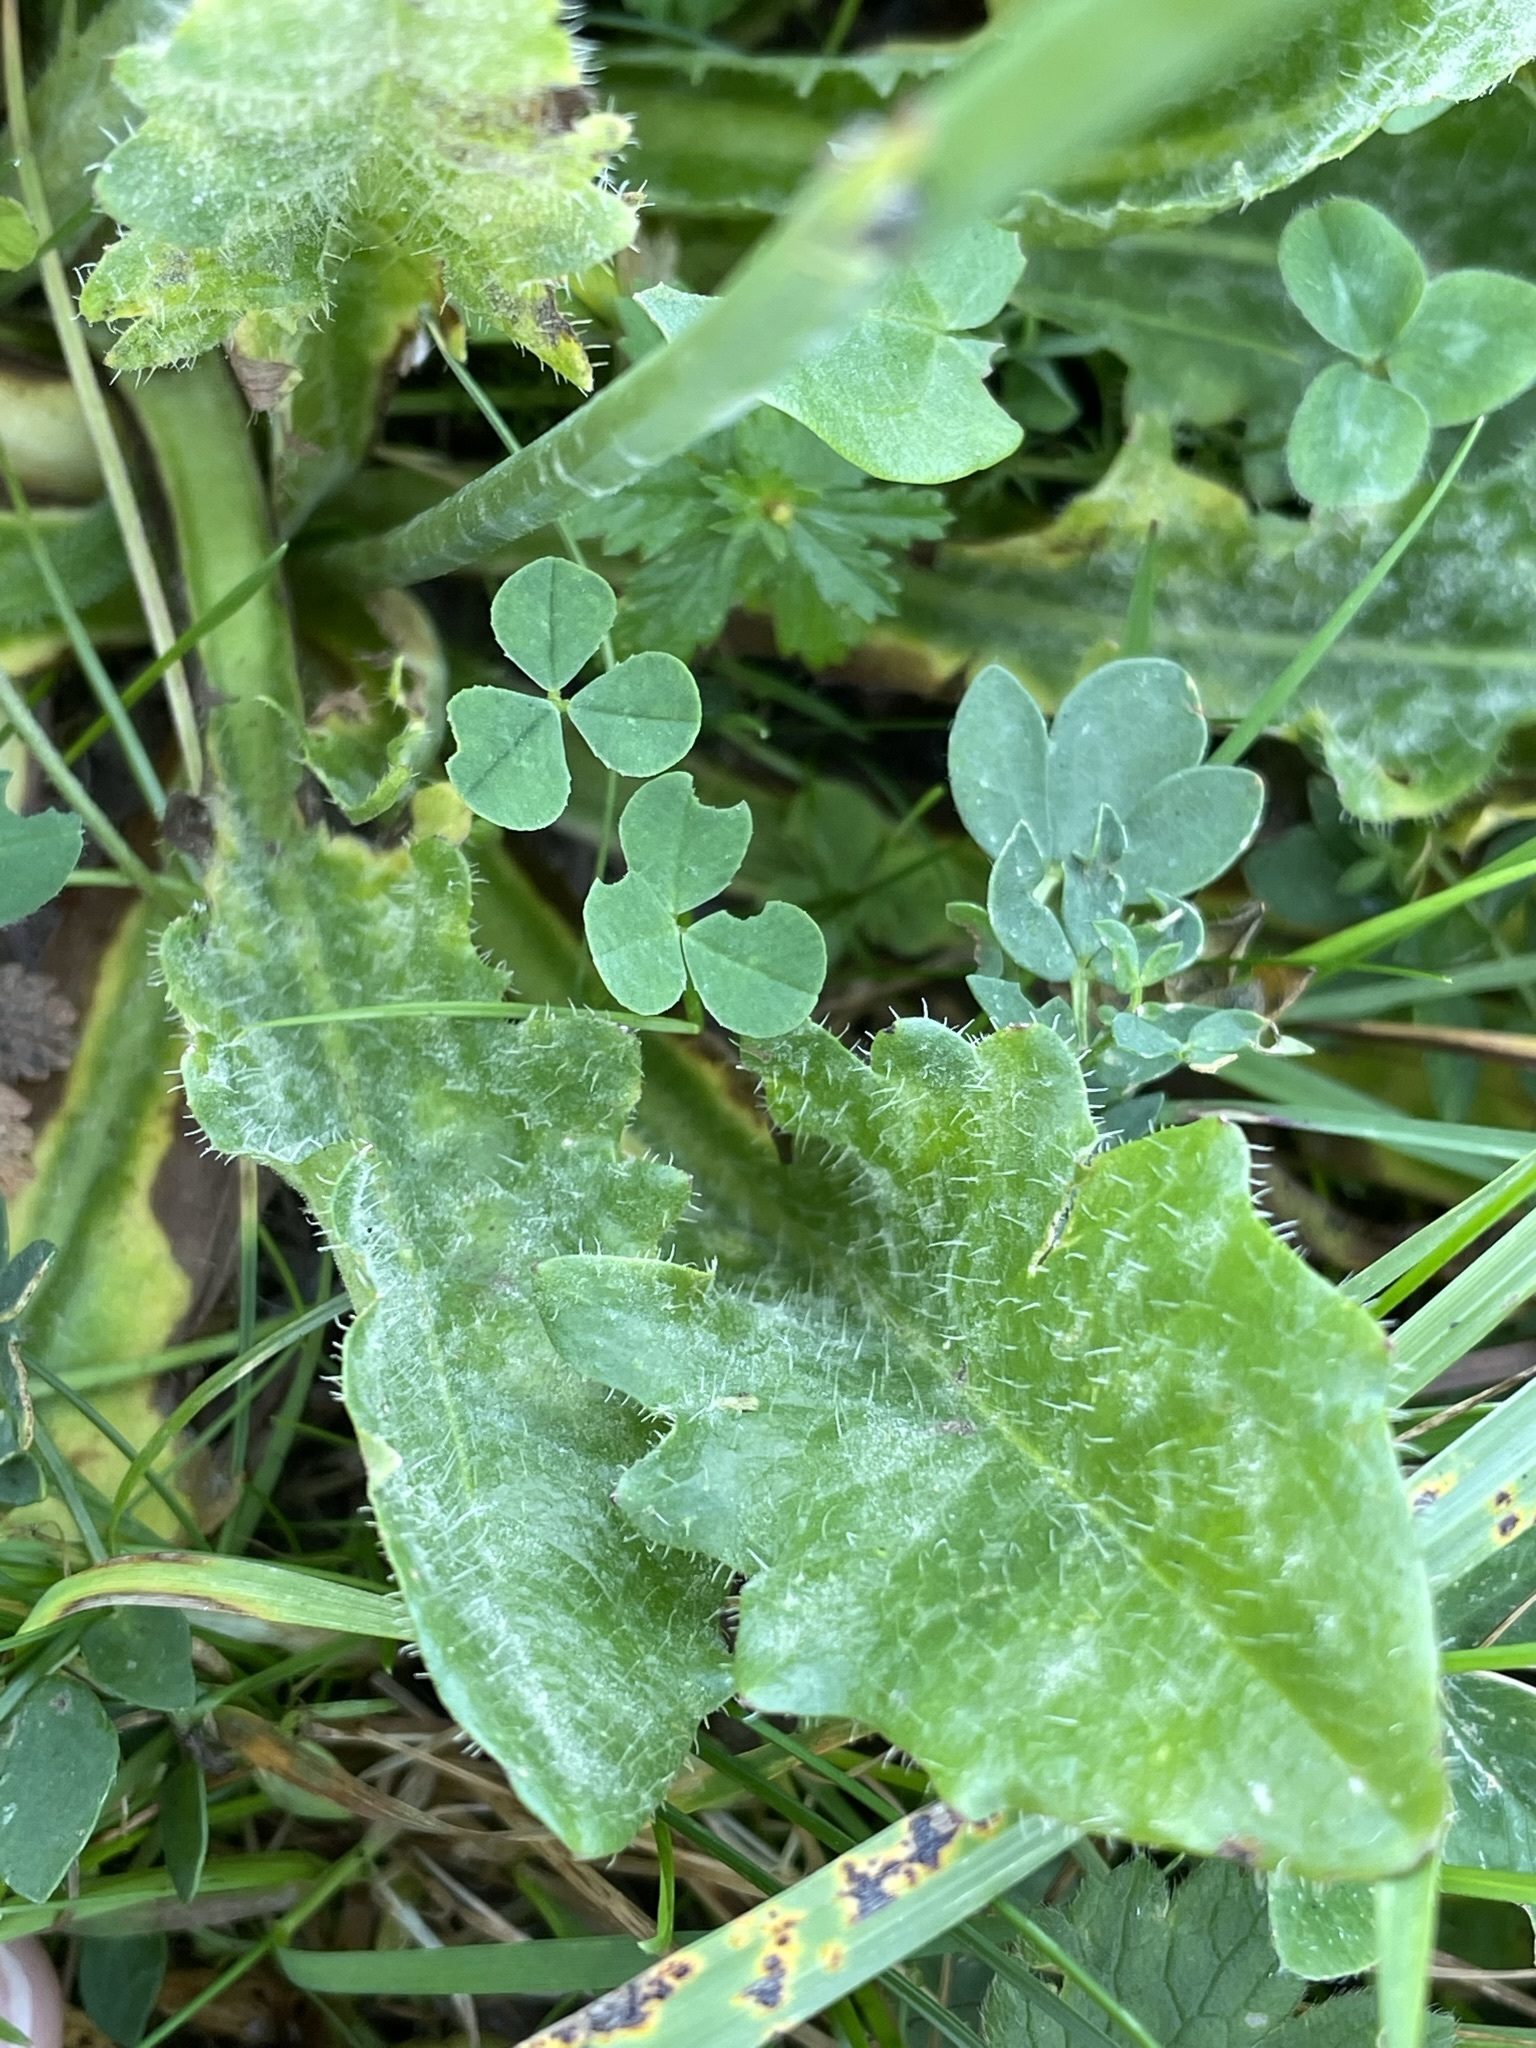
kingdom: Plantae
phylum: Tracheophyta
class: Magnoliopsida
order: Asterales
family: Asteraceae
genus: Hypochaeris
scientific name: Hypochaeris radicata
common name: Flatweed
